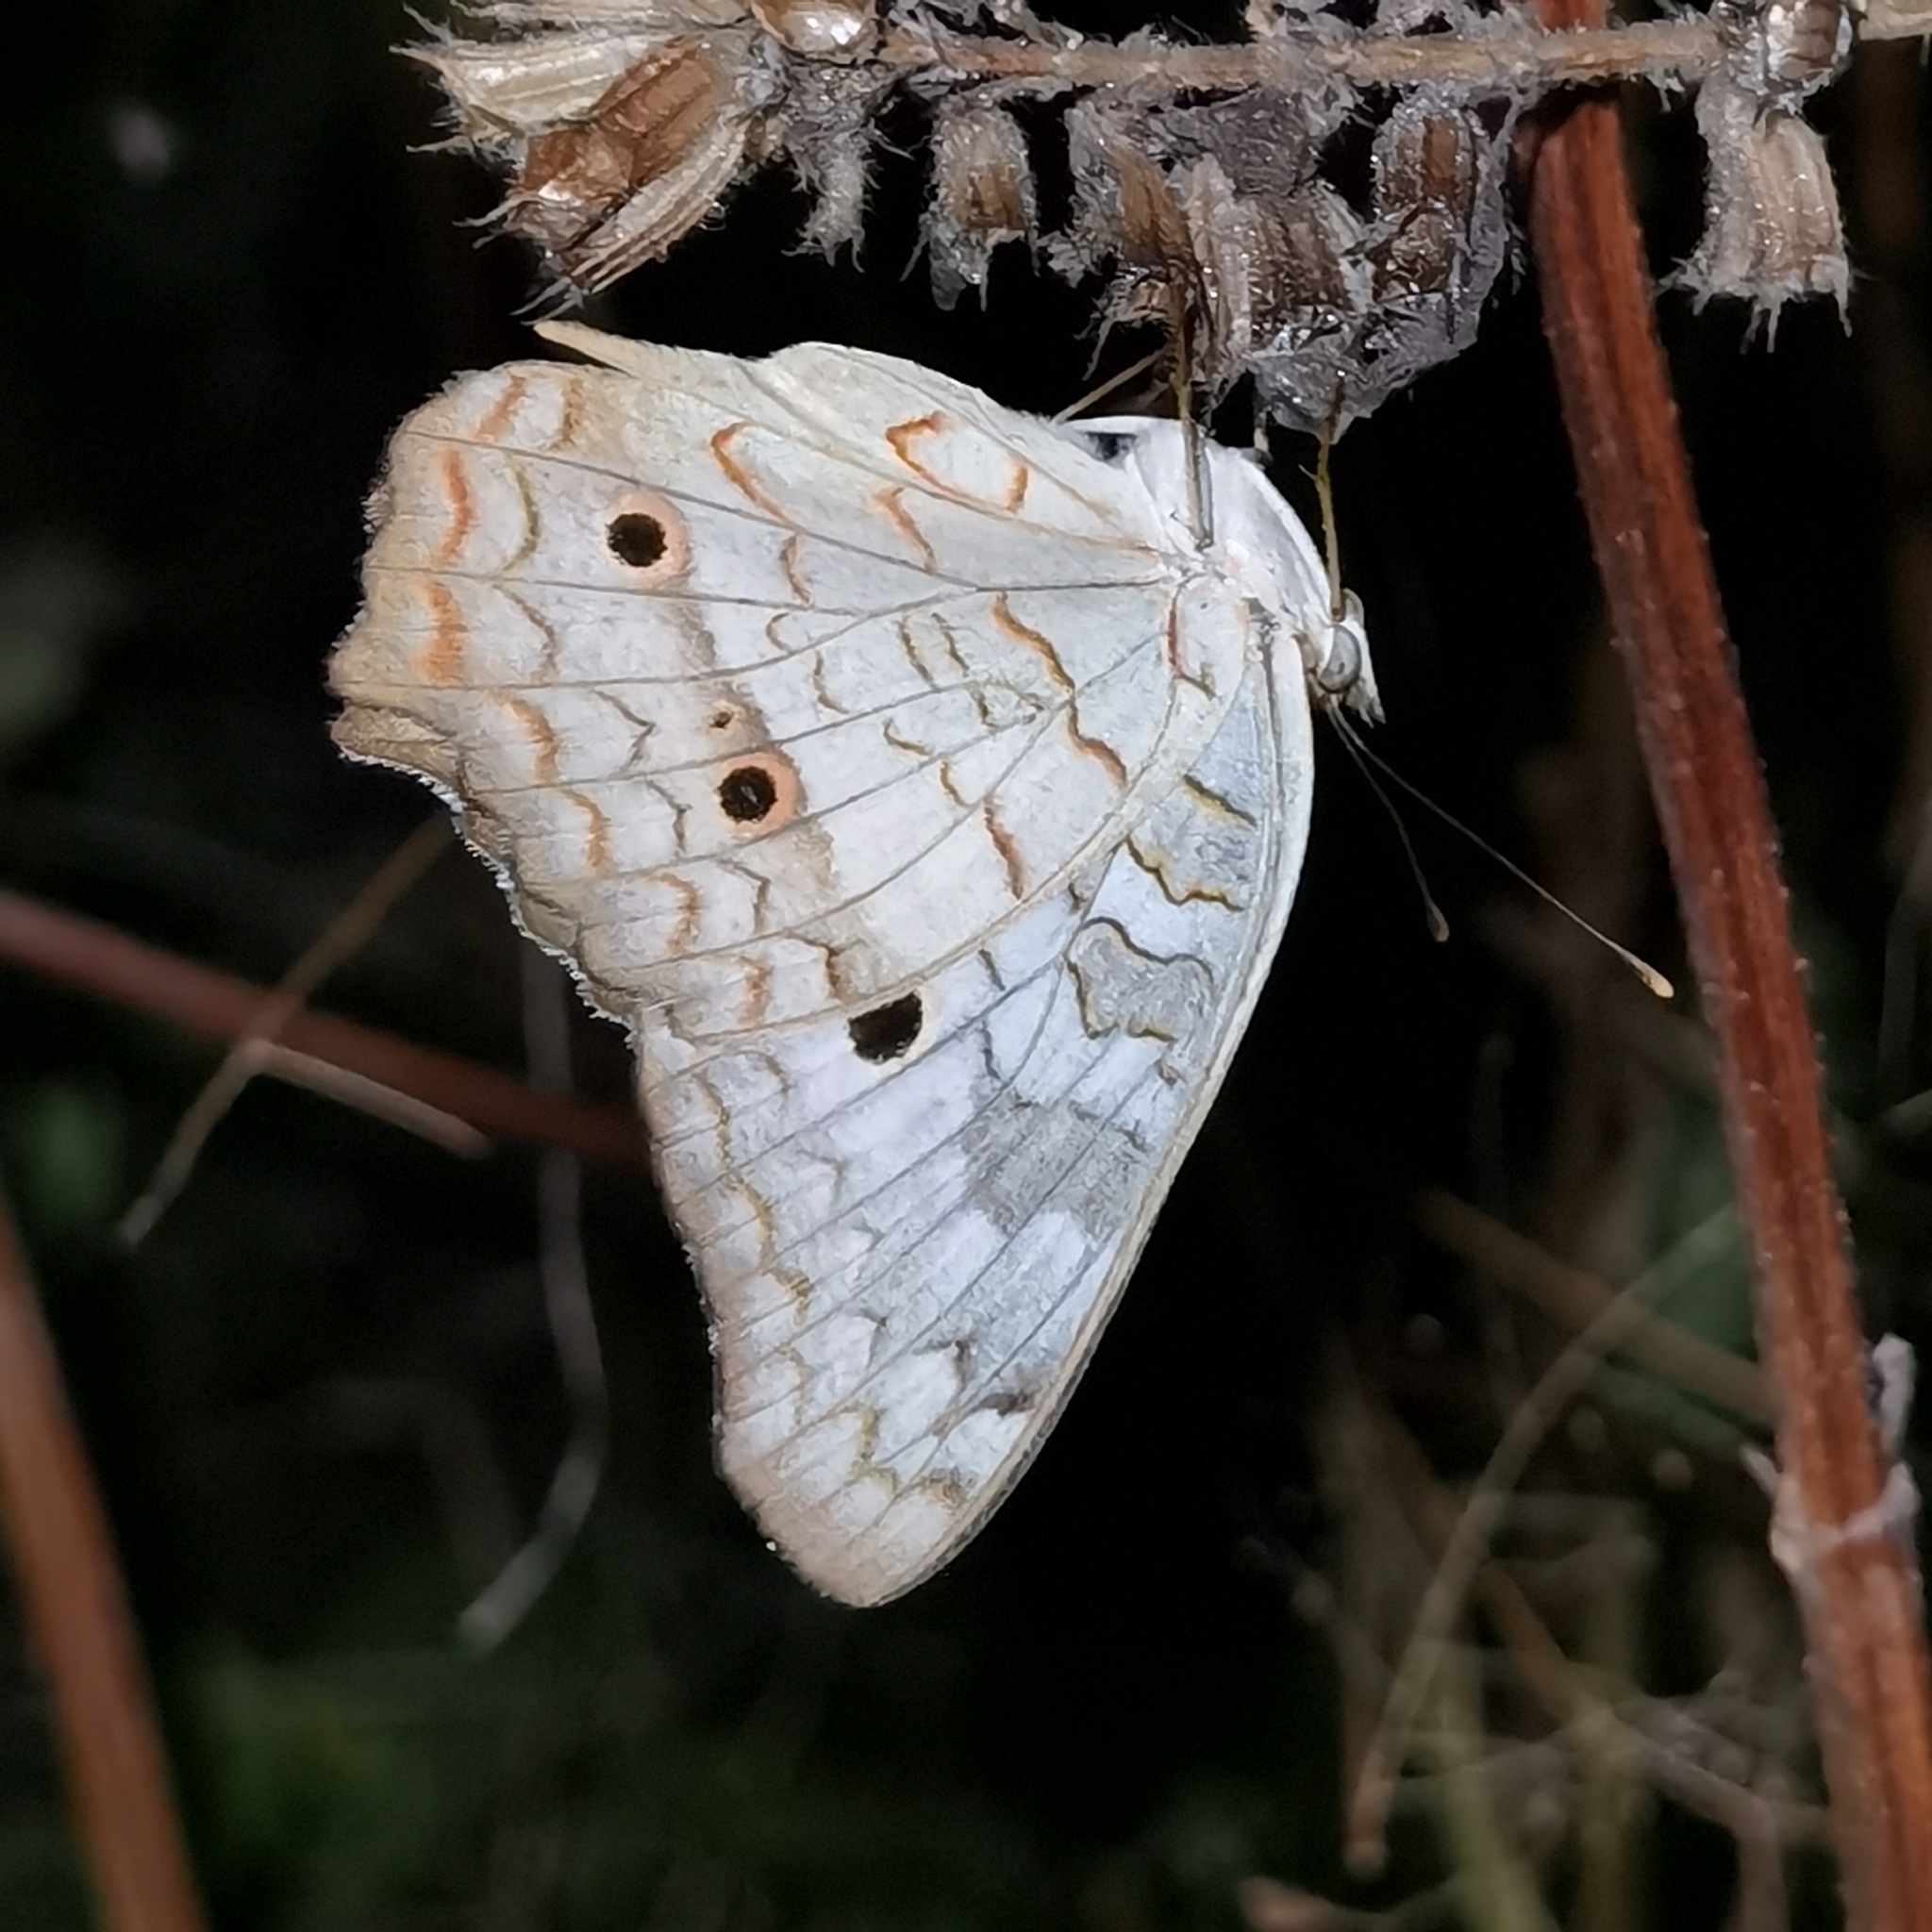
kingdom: Animalia
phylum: Arthropoda
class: Insecta
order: Lepidoptera
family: Nymphalidae
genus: Anartia
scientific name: Anartia jatrophae
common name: White peacock
